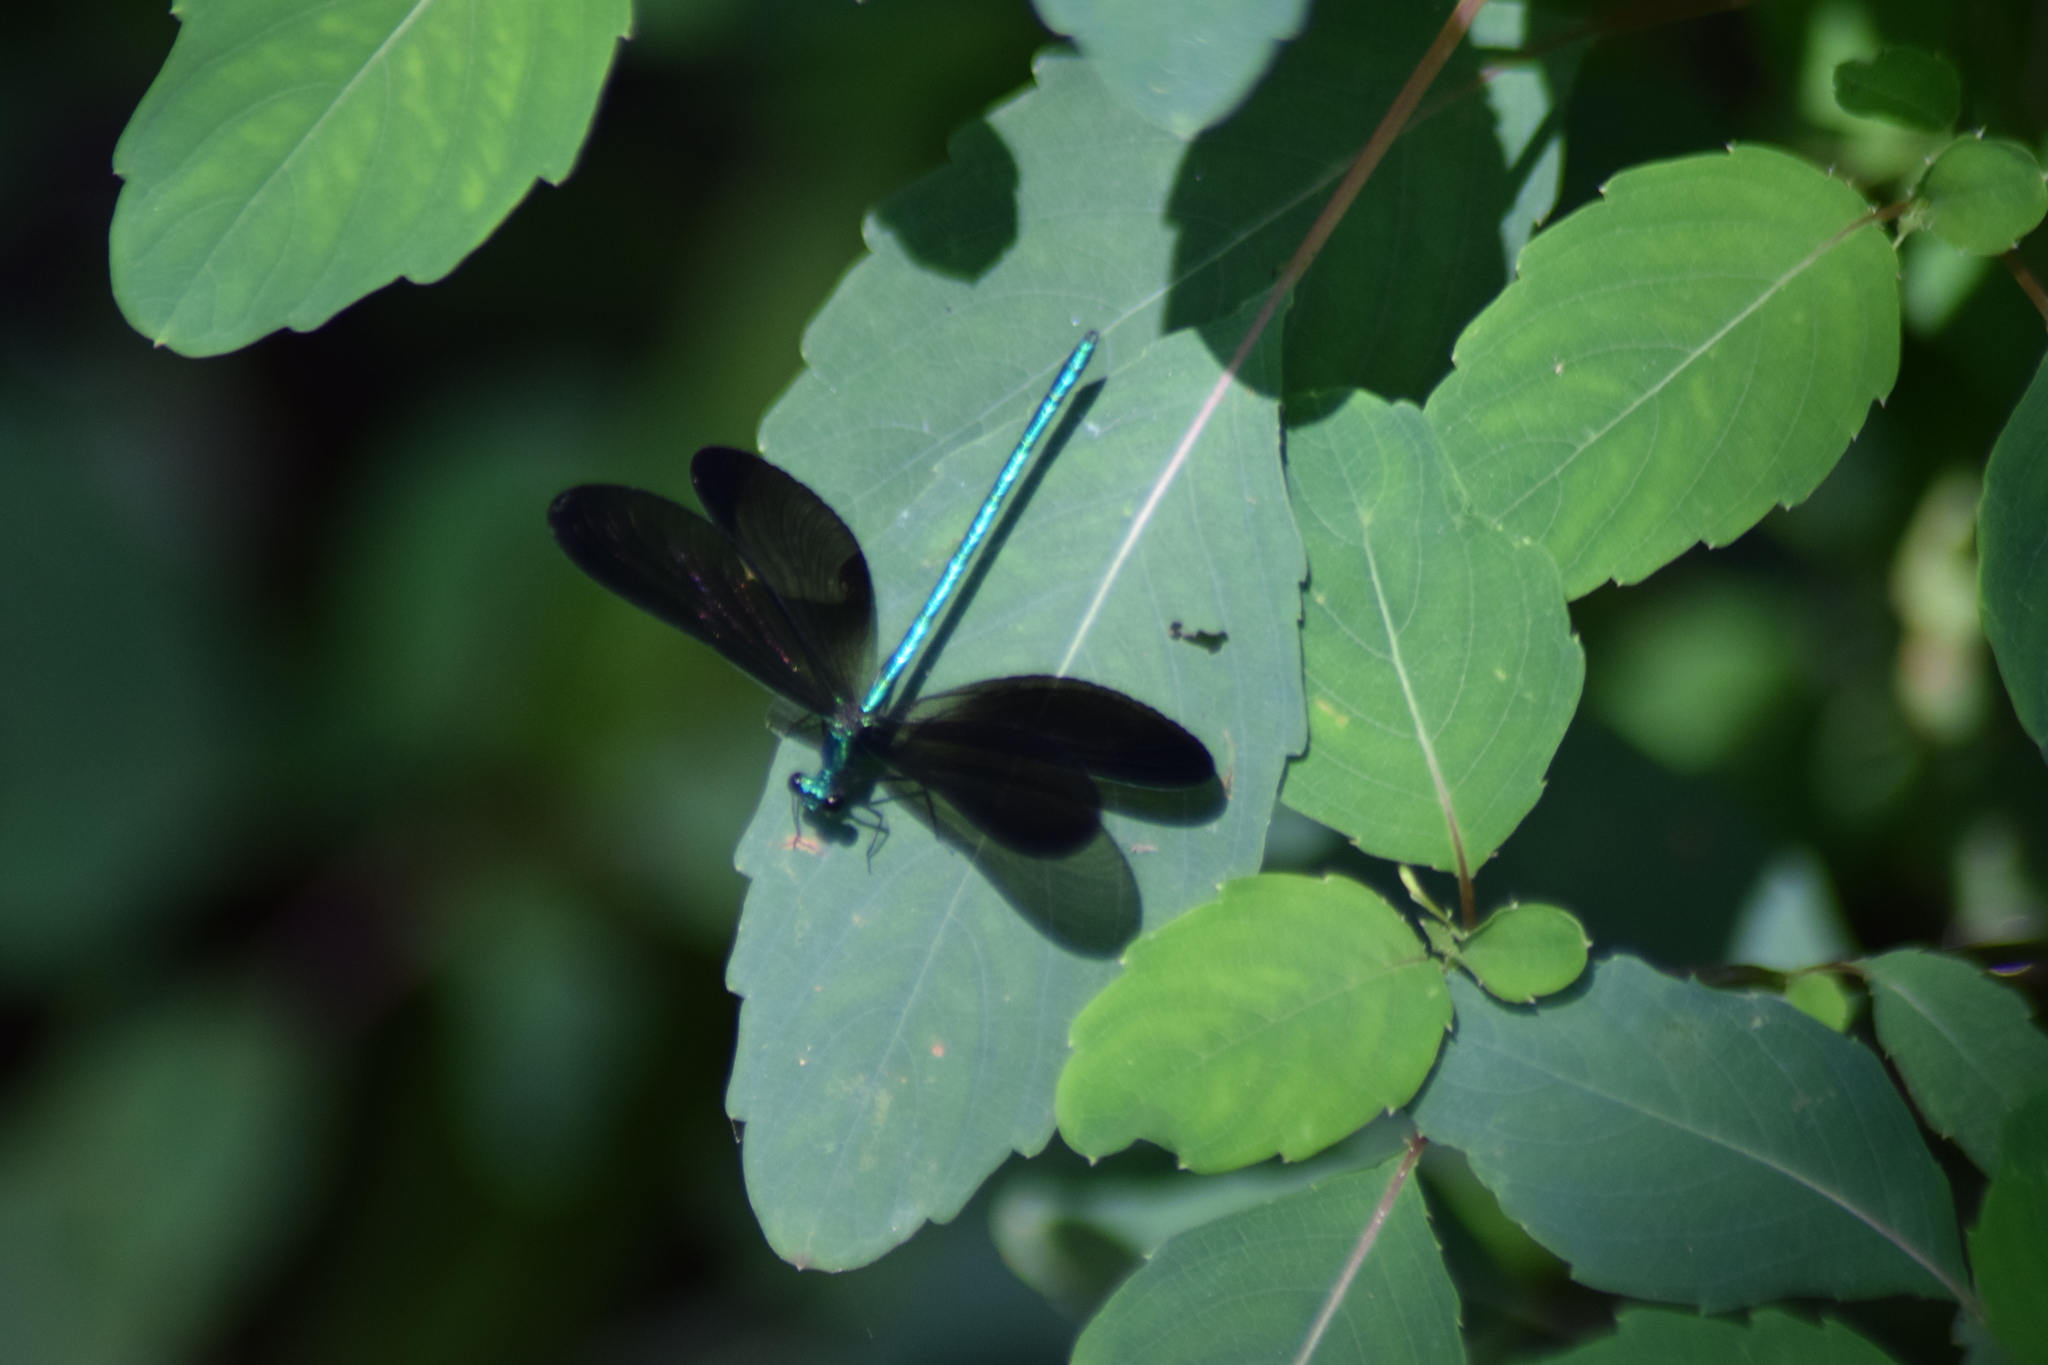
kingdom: Animalia
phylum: Arthropoda
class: Insecta
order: Odonata
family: Calopterygidae
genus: Calopteryx
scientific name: Calopteryx maculata
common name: Ebony jewelwing
